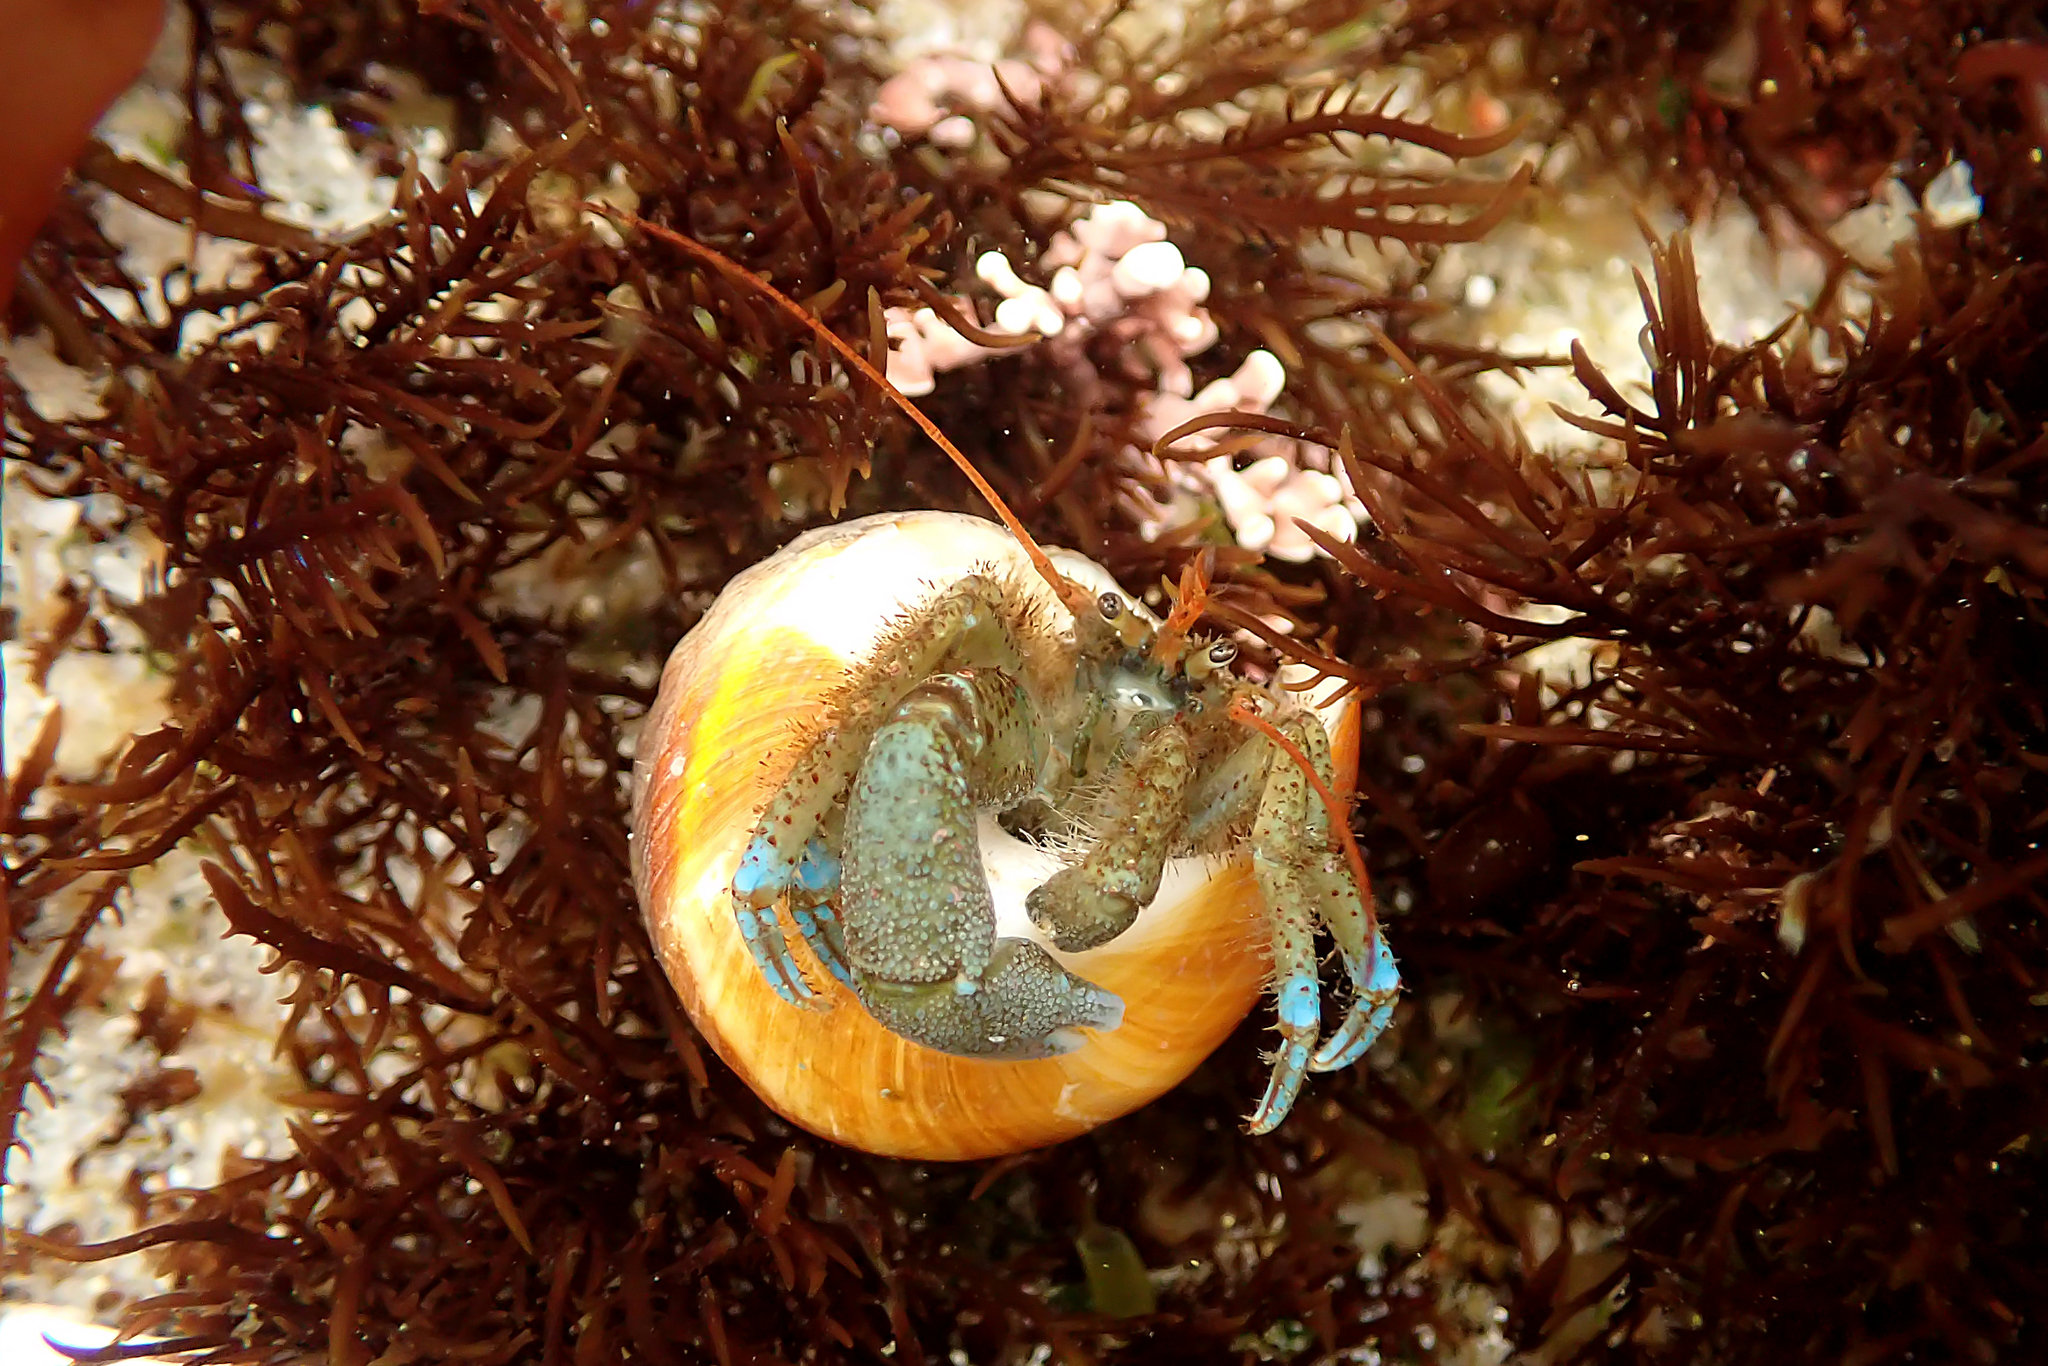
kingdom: Animalia
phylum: Arthropoda
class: Malacostraca
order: Decapoda
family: Paguridae
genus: Pagurus
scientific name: Pagurus samuelis
